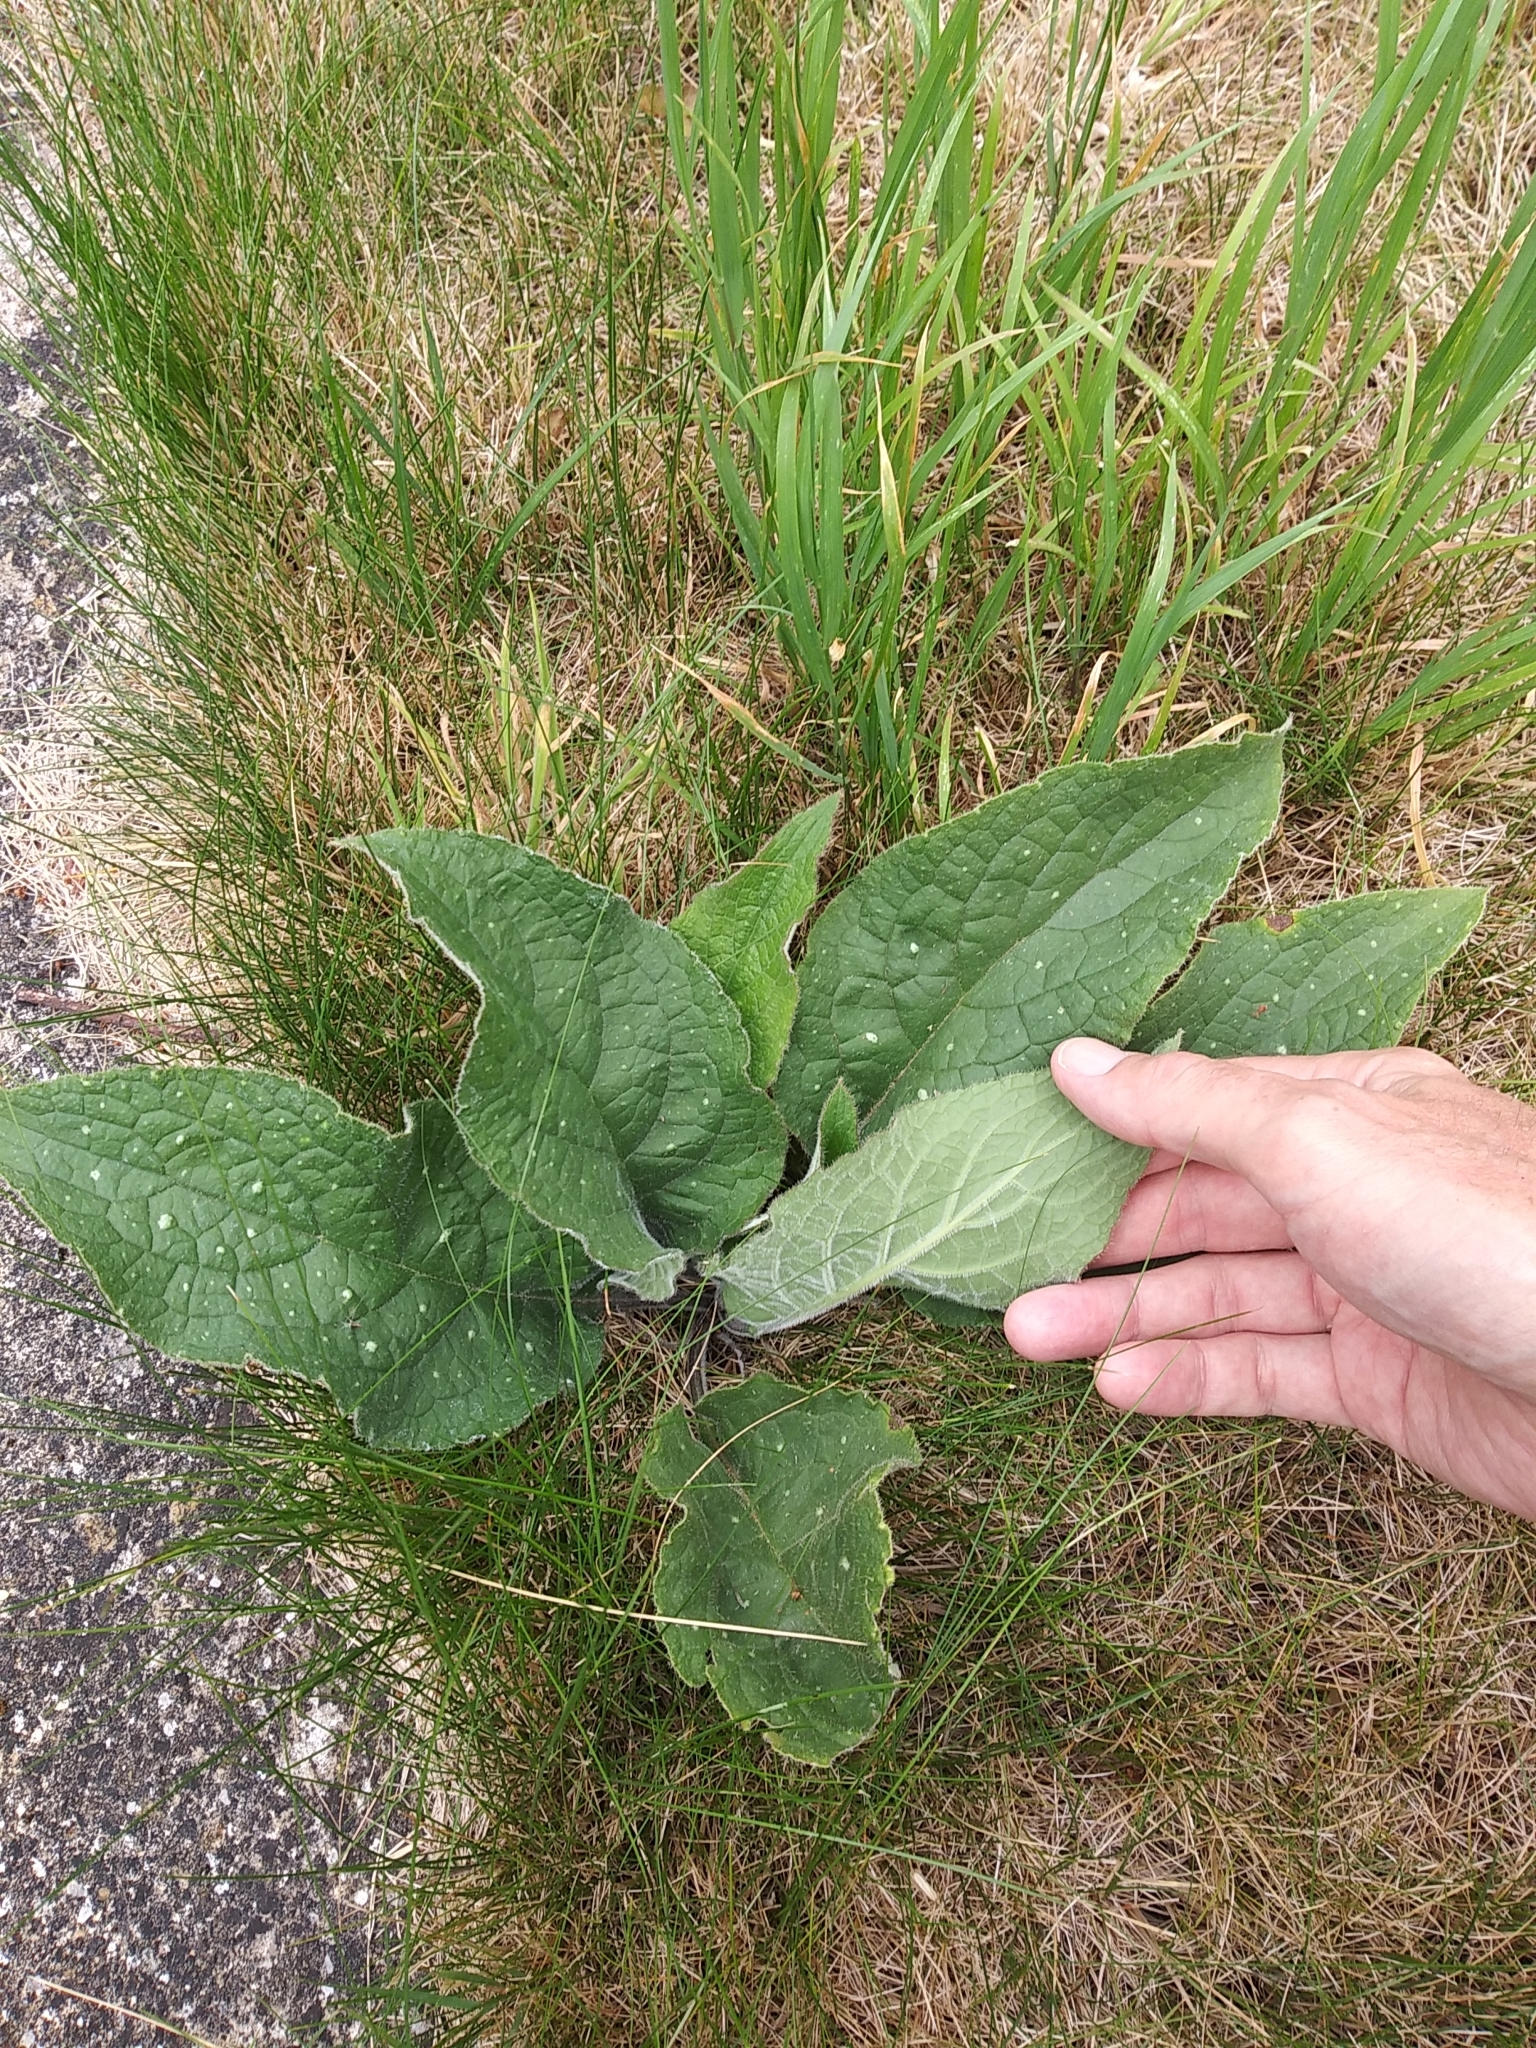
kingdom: Plantae
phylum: Tracheophyta
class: Magnoliopsida
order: Boraginales
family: Boraginaceae
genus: Pentaglottis
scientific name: Pentaglottis sempervirens
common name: Green alkanet
